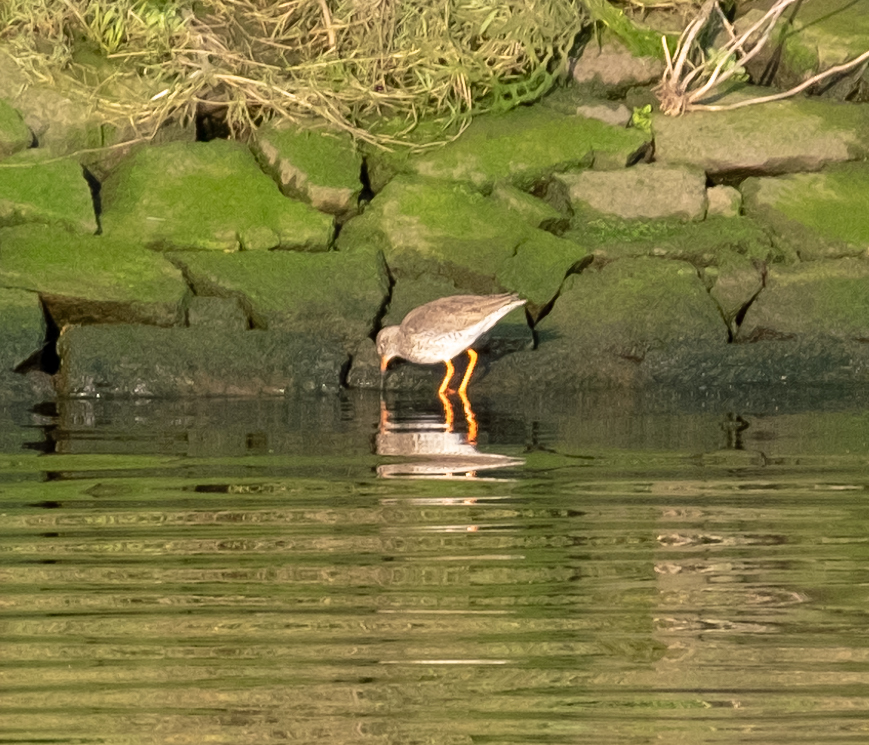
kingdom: Animalia
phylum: Chordata
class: Aves
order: Charadriiformes
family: Scolopacidae
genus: Tringa
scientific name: Tringa totanus
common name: Common redshank
